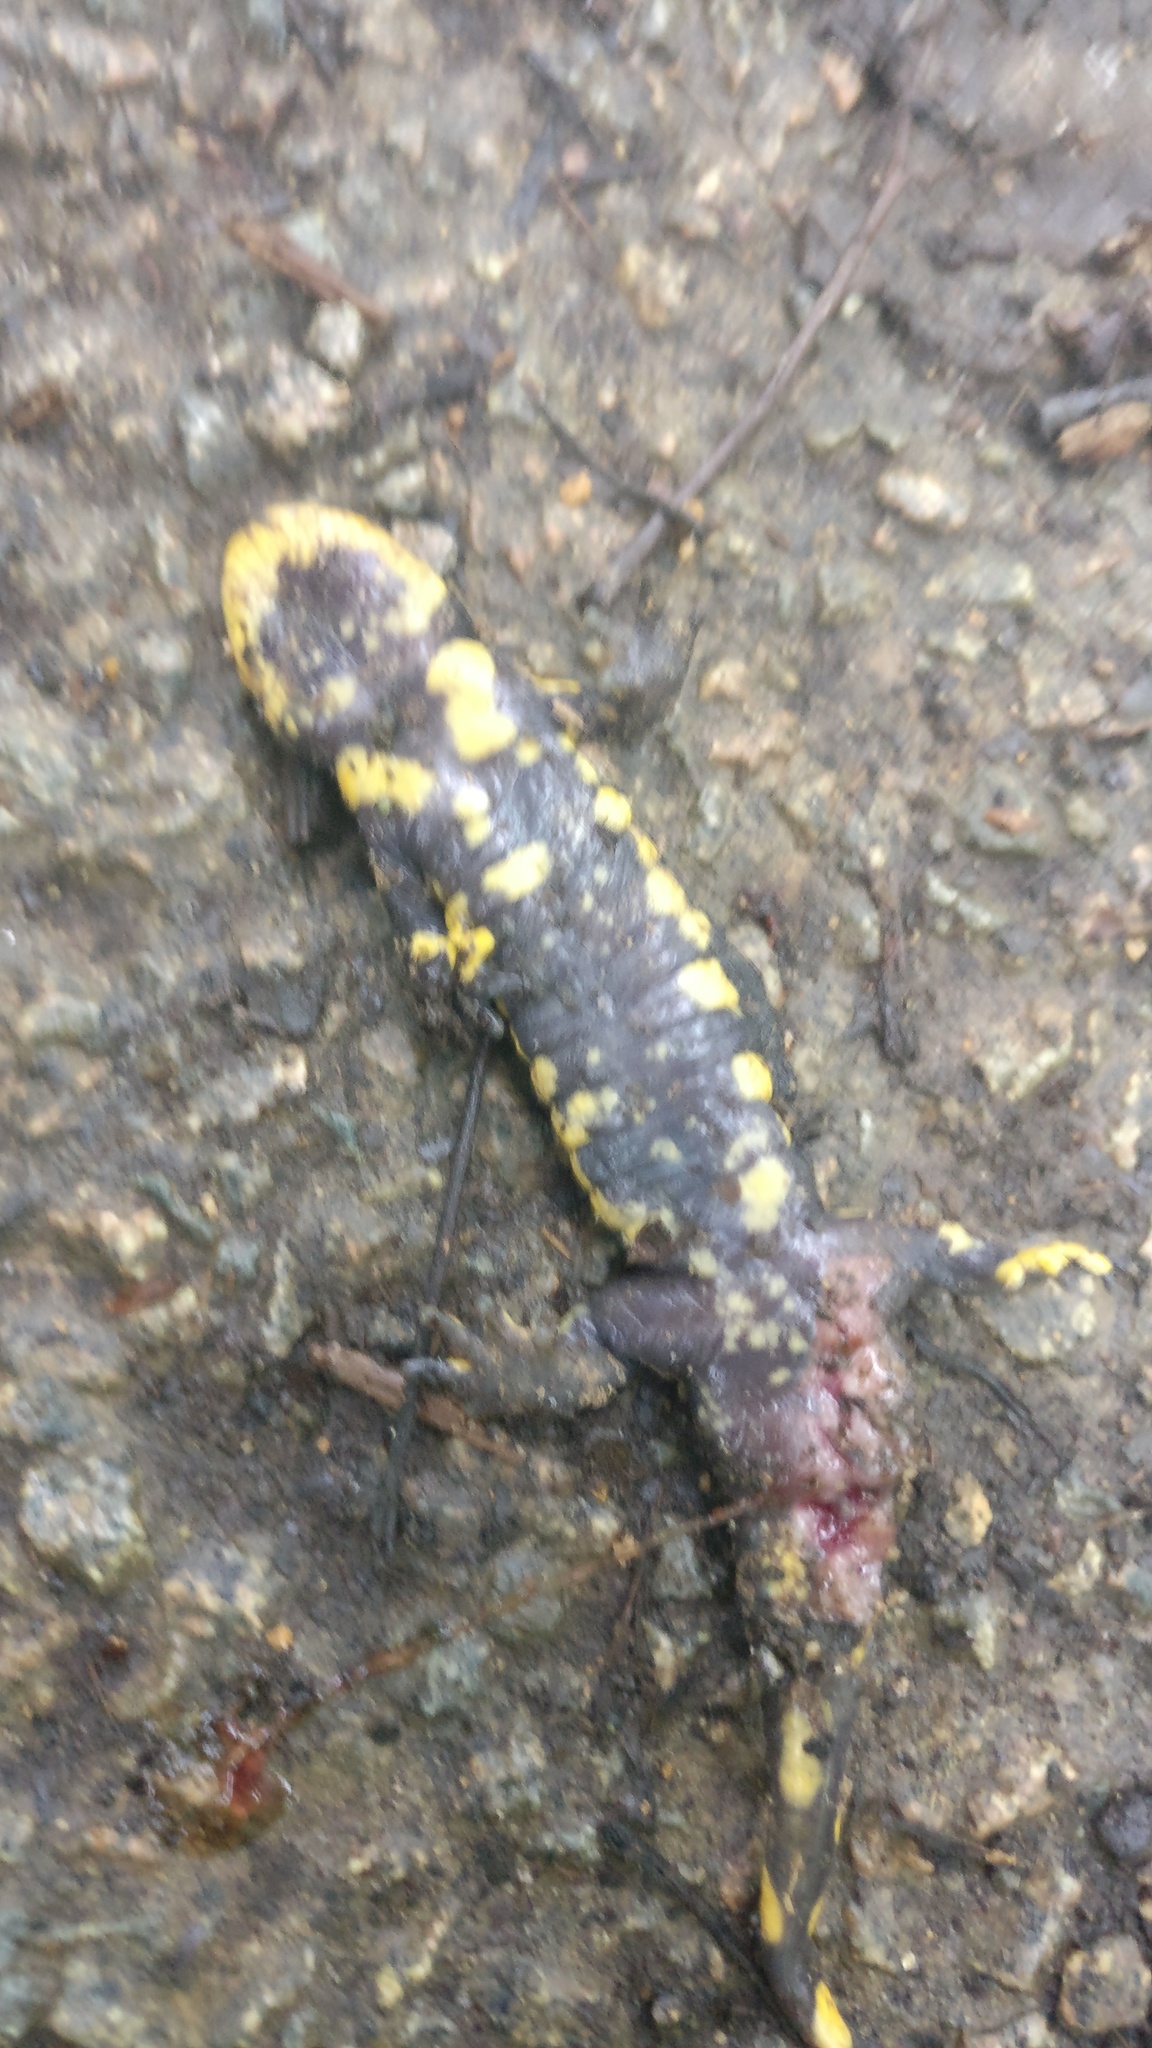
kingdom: Animalia
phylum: Chordata
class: Amphibia
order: Caudata
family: Salamandridae
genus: Salamandra
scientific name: Salamandra salamandra
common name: Fire salamander
